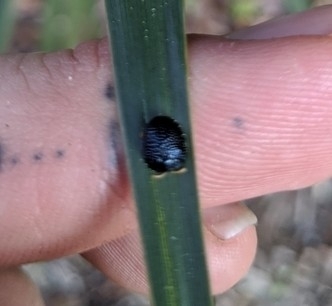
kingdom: Animalia
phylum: Arthropoda
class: Insecta
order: Coleoptera
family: Chrysomelidae
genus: Hemisphaerota
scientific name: Hemisphaerota cyanea
